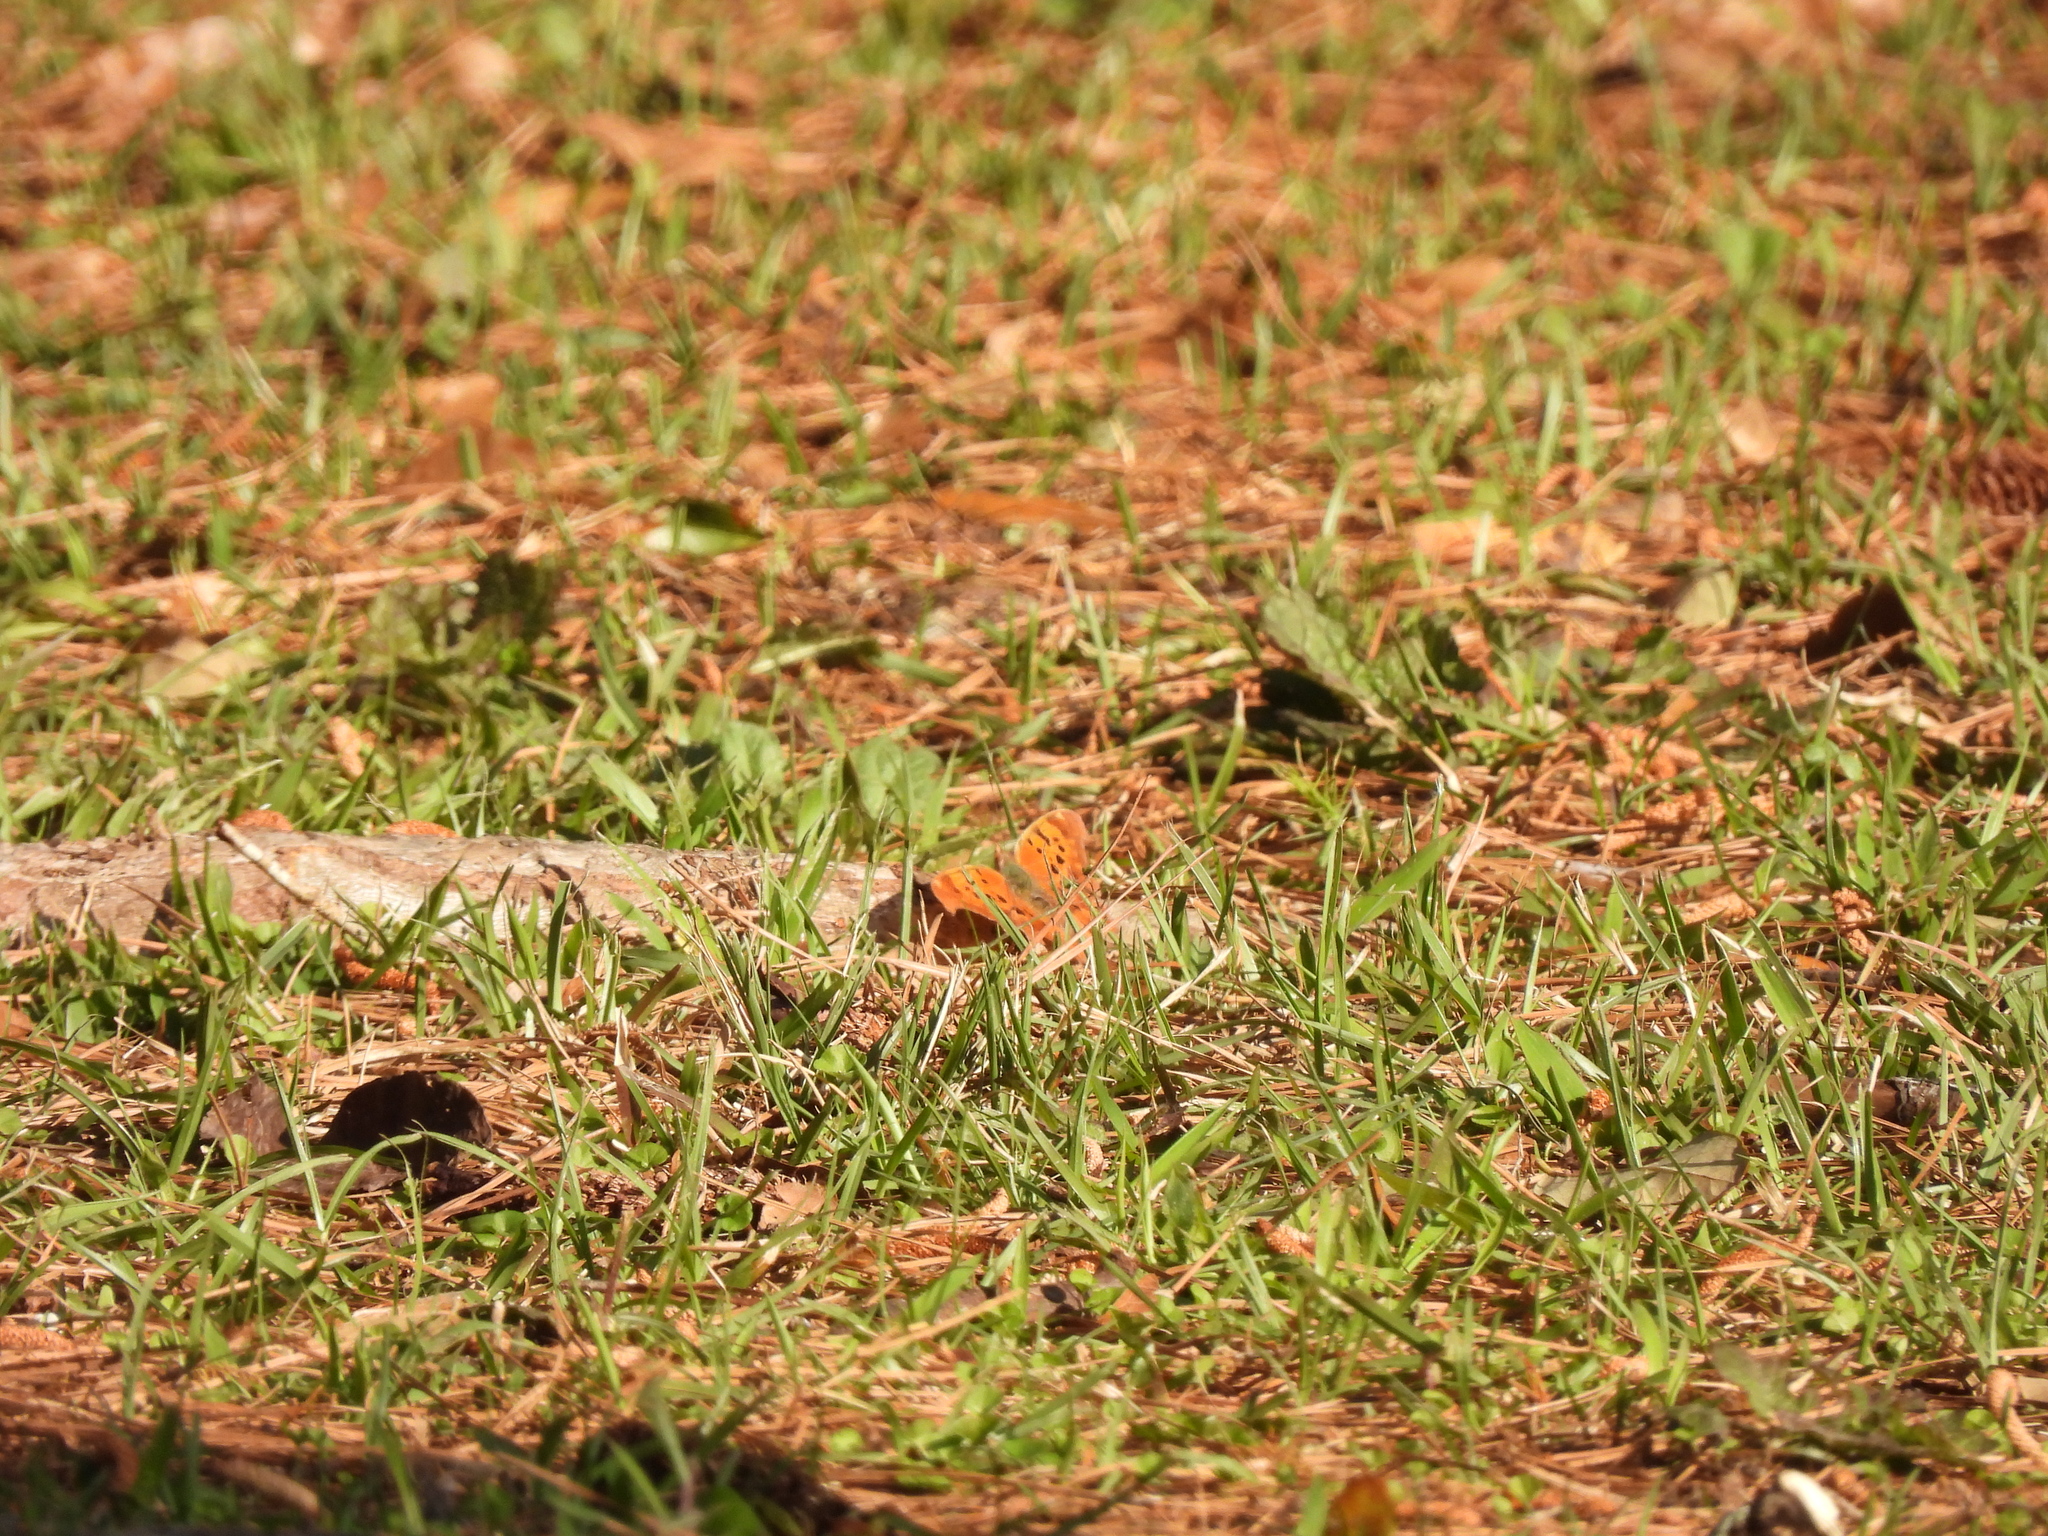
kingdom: Animalia
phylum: Arthropoda
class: Insecta
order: Lepidoptera
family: Nymphalidae
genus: Polygonia
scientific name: Polygonia interrogationis
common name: Question mark
